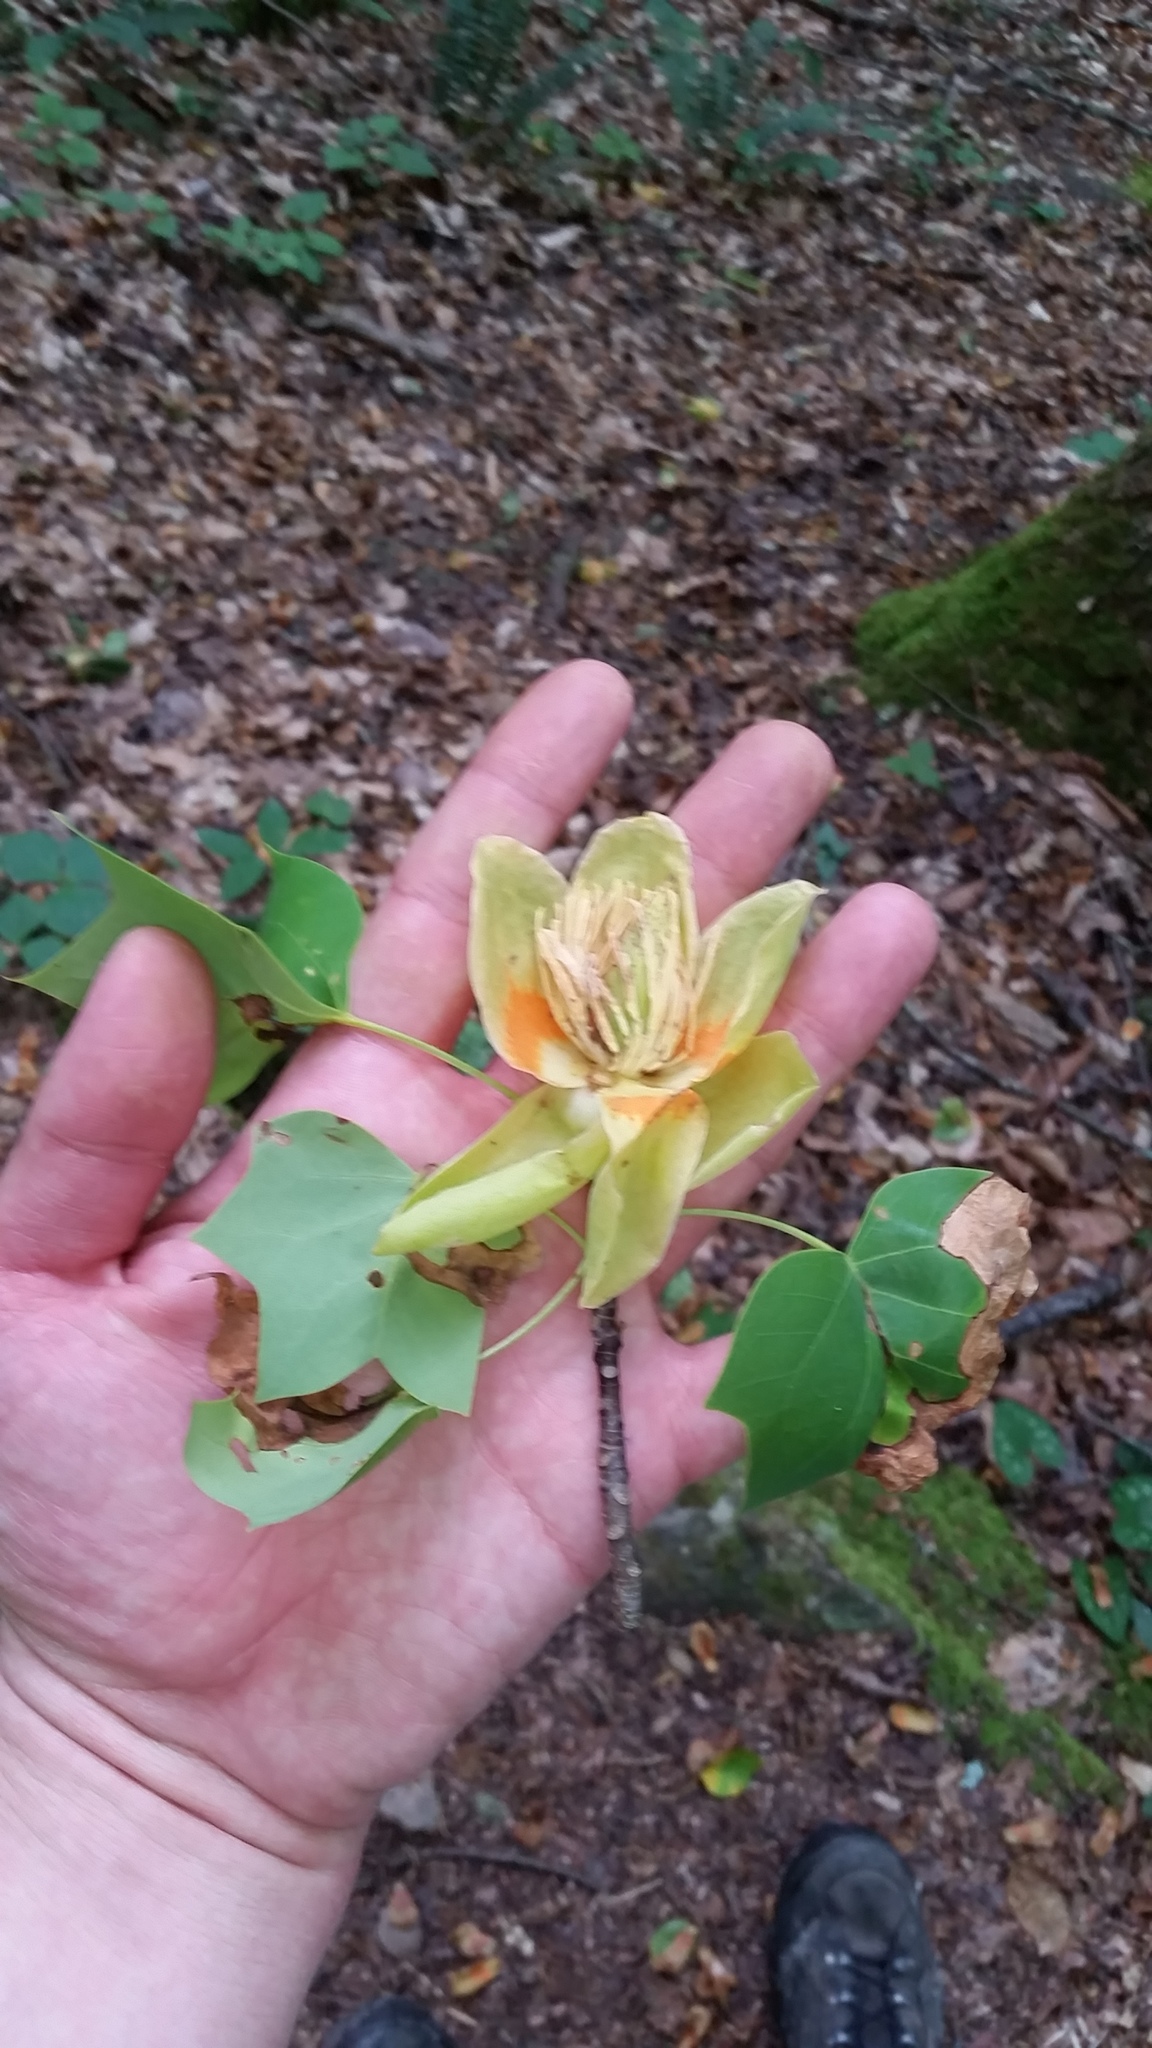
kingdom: Plantae
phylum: Tracheophyta
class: Magnoliopsida
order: Magnoliales
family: Magnoliaceae
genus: Liriodendron
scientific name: Liriodendron tulipifera
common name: Tulip tree
